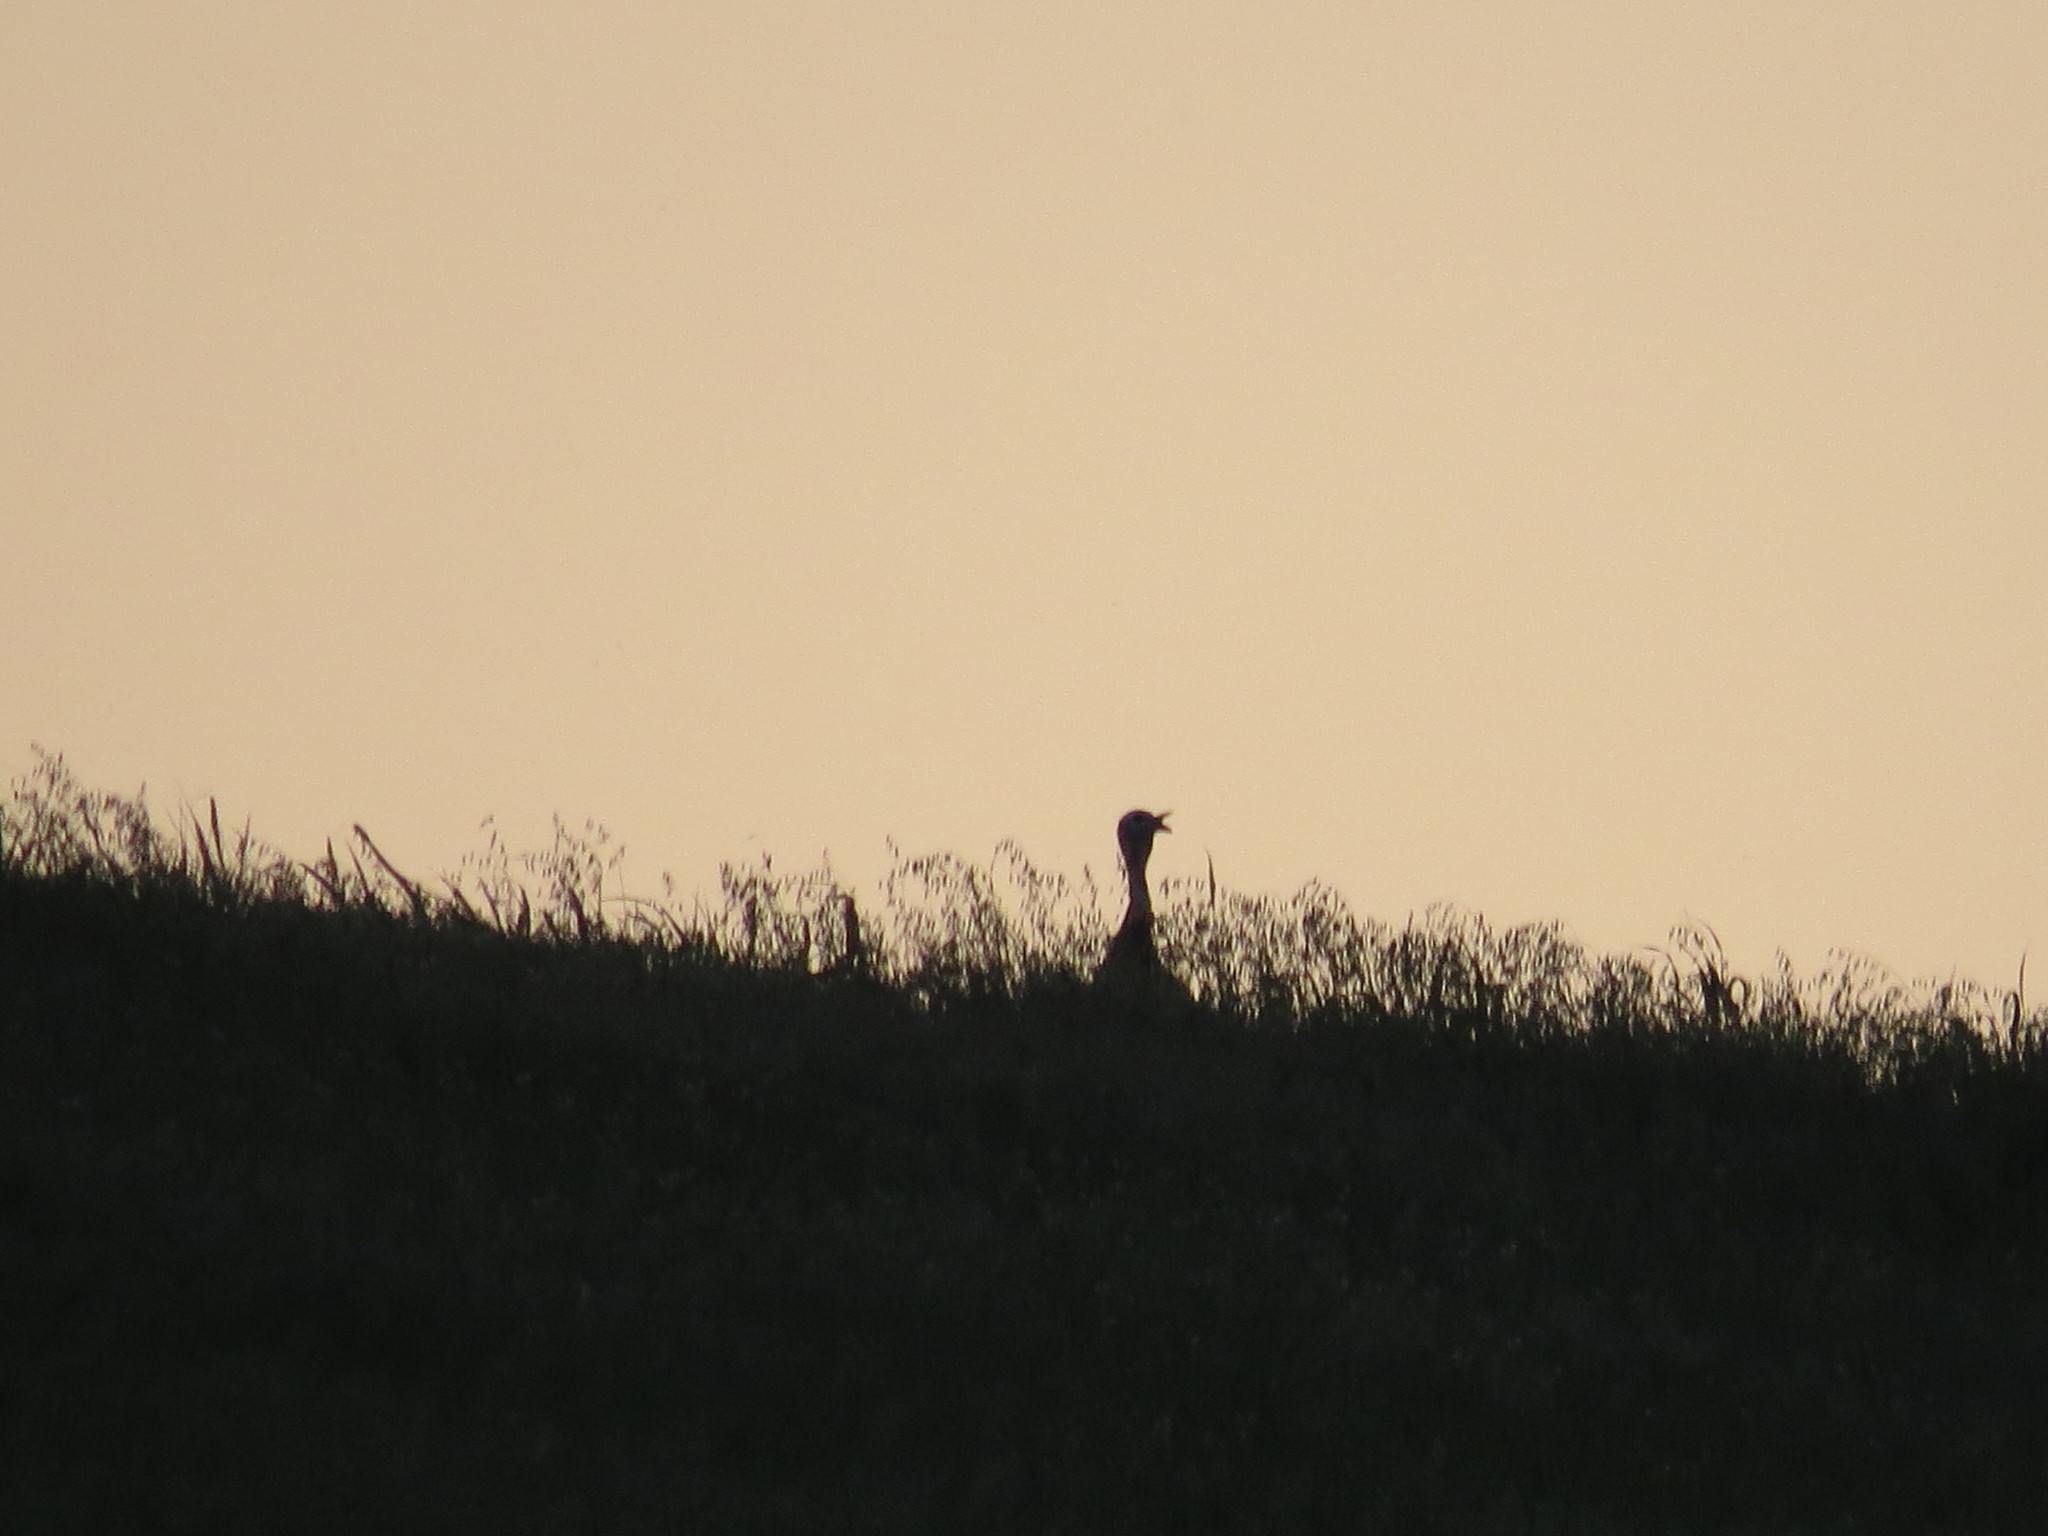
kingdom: Animalia
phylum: Chordata
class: Aves
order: Galliformes
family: Phasianidae
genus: Meleagris
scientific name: Meleagris gallopavo
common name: Wild turkey
